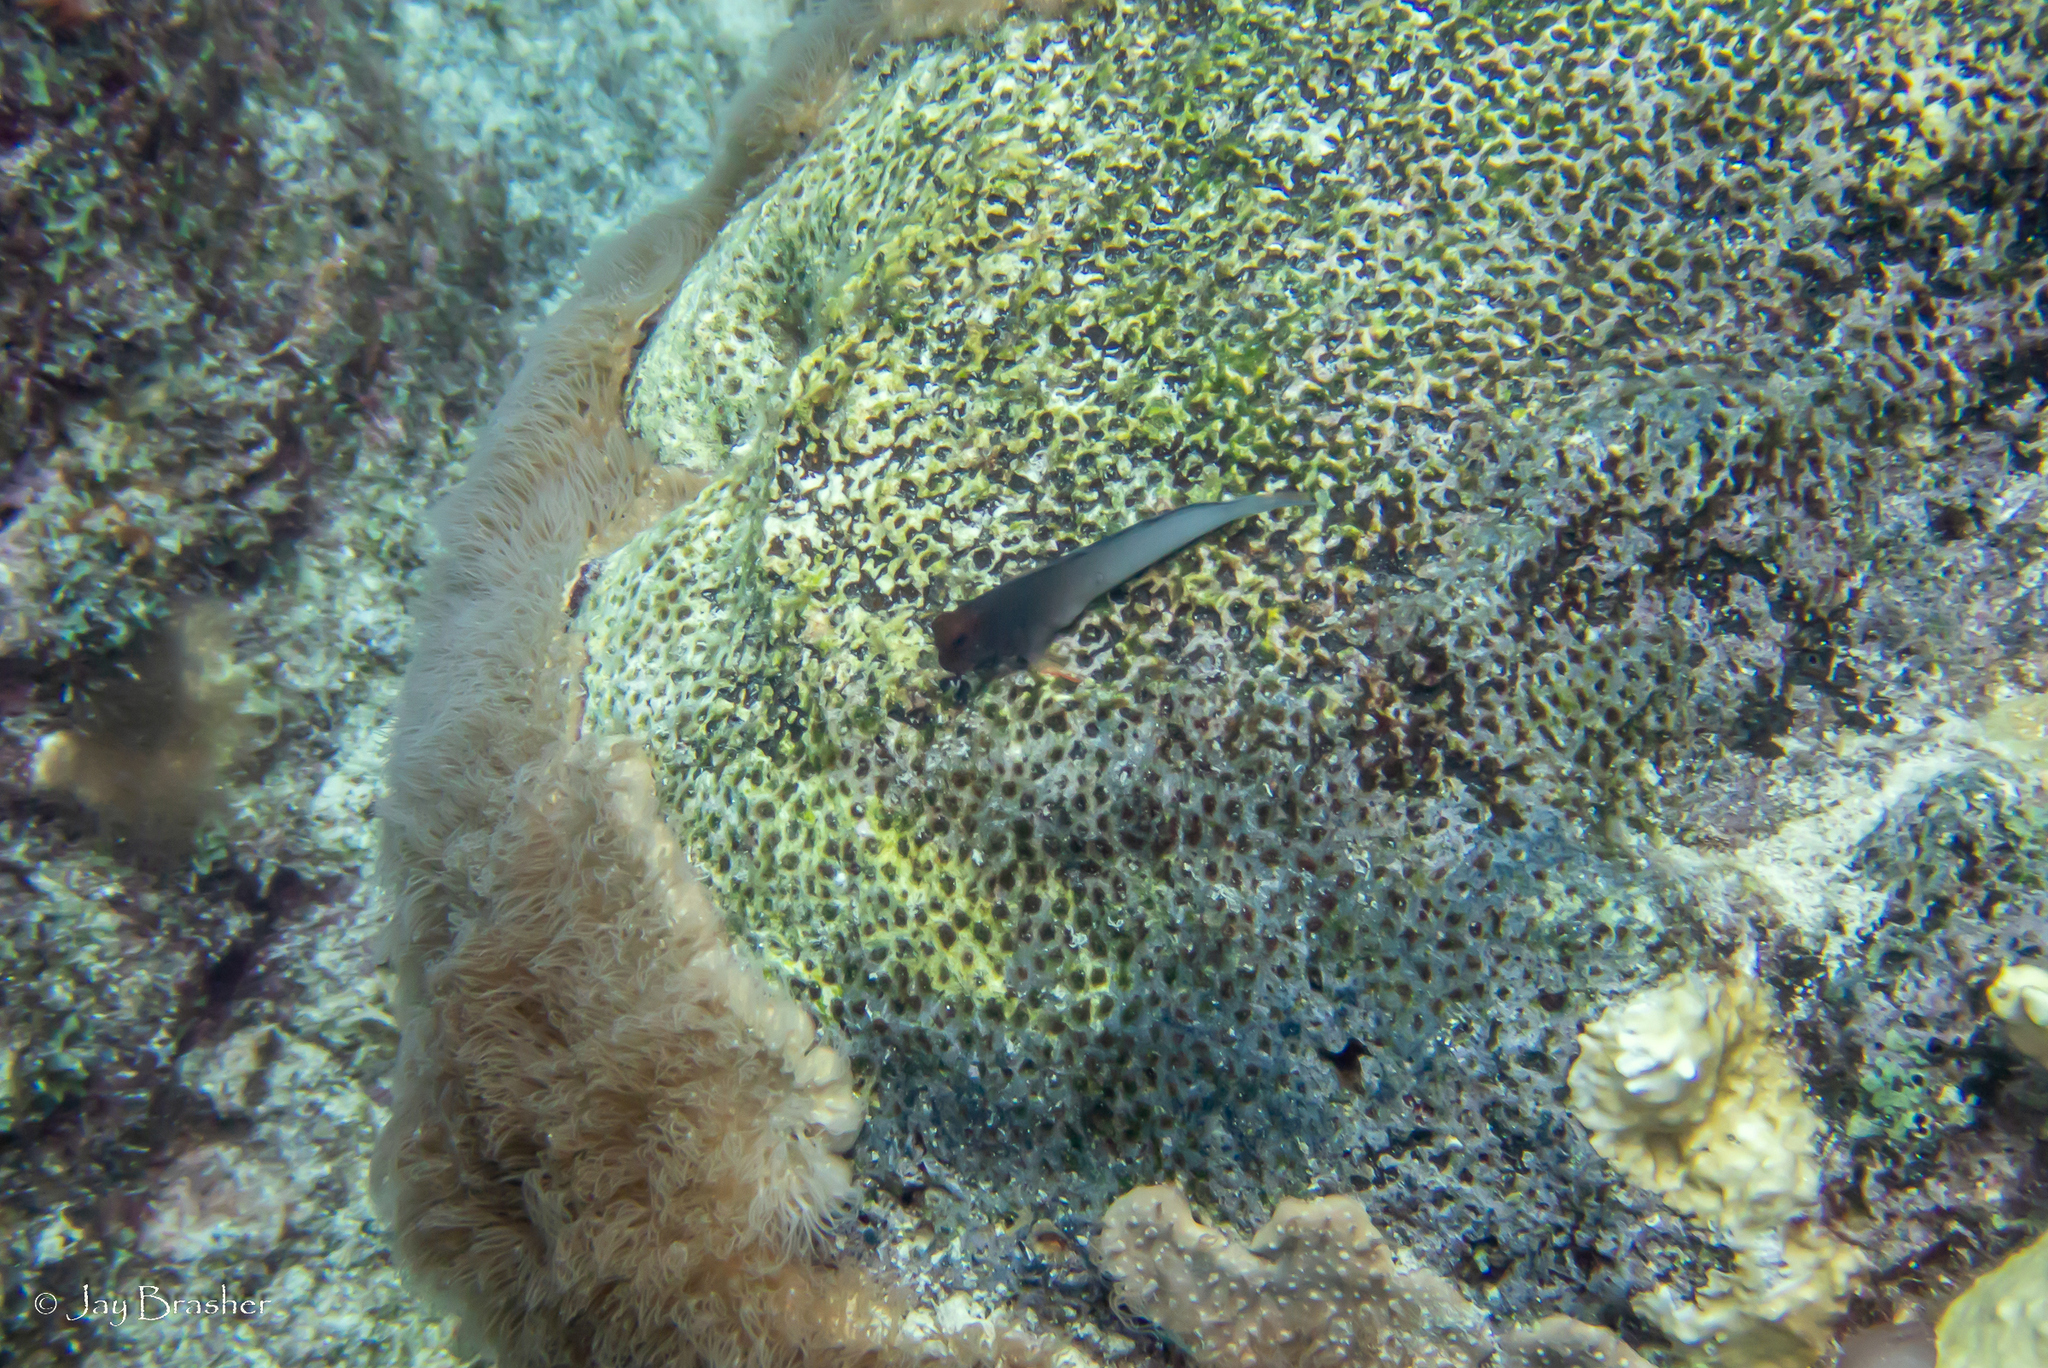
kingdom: Animalia
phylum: Chordata
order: Perciformes
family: Blenniidae
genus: Ophioblennius
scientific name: Ophioblennius macclurei
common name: Redlip blenny
